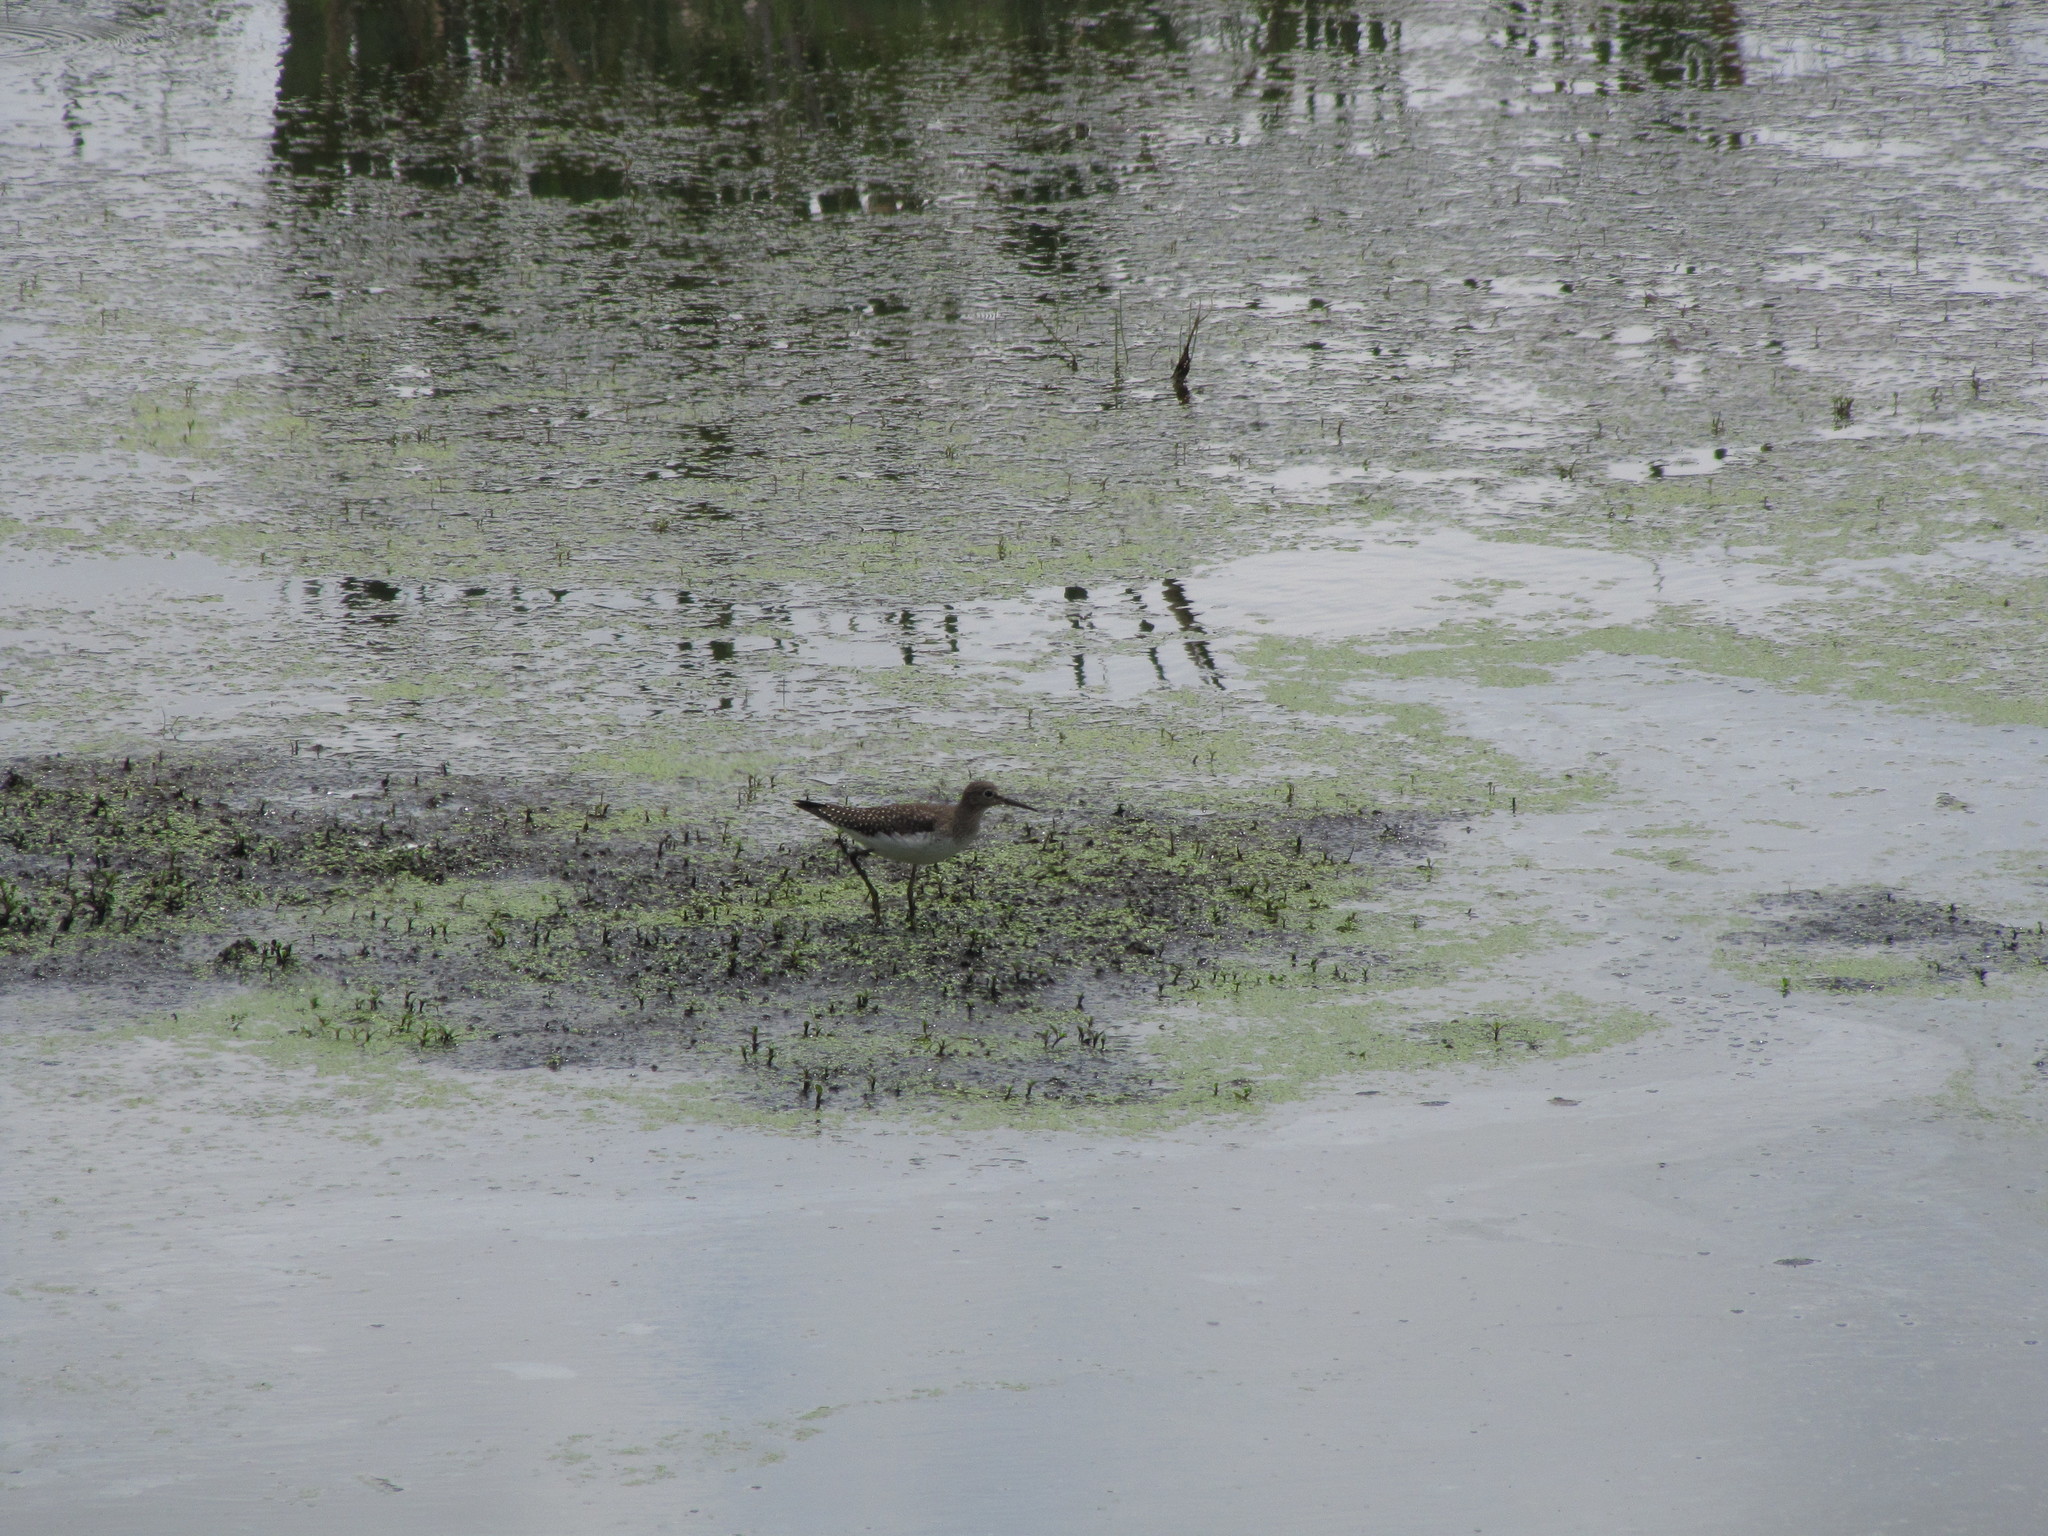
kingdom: Animalia
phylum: Chordata
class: Aves
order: Charadriiformes
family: Scolopacidae
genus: Tringa
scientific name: Tringa solitaria
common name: Solitary sandpiper
